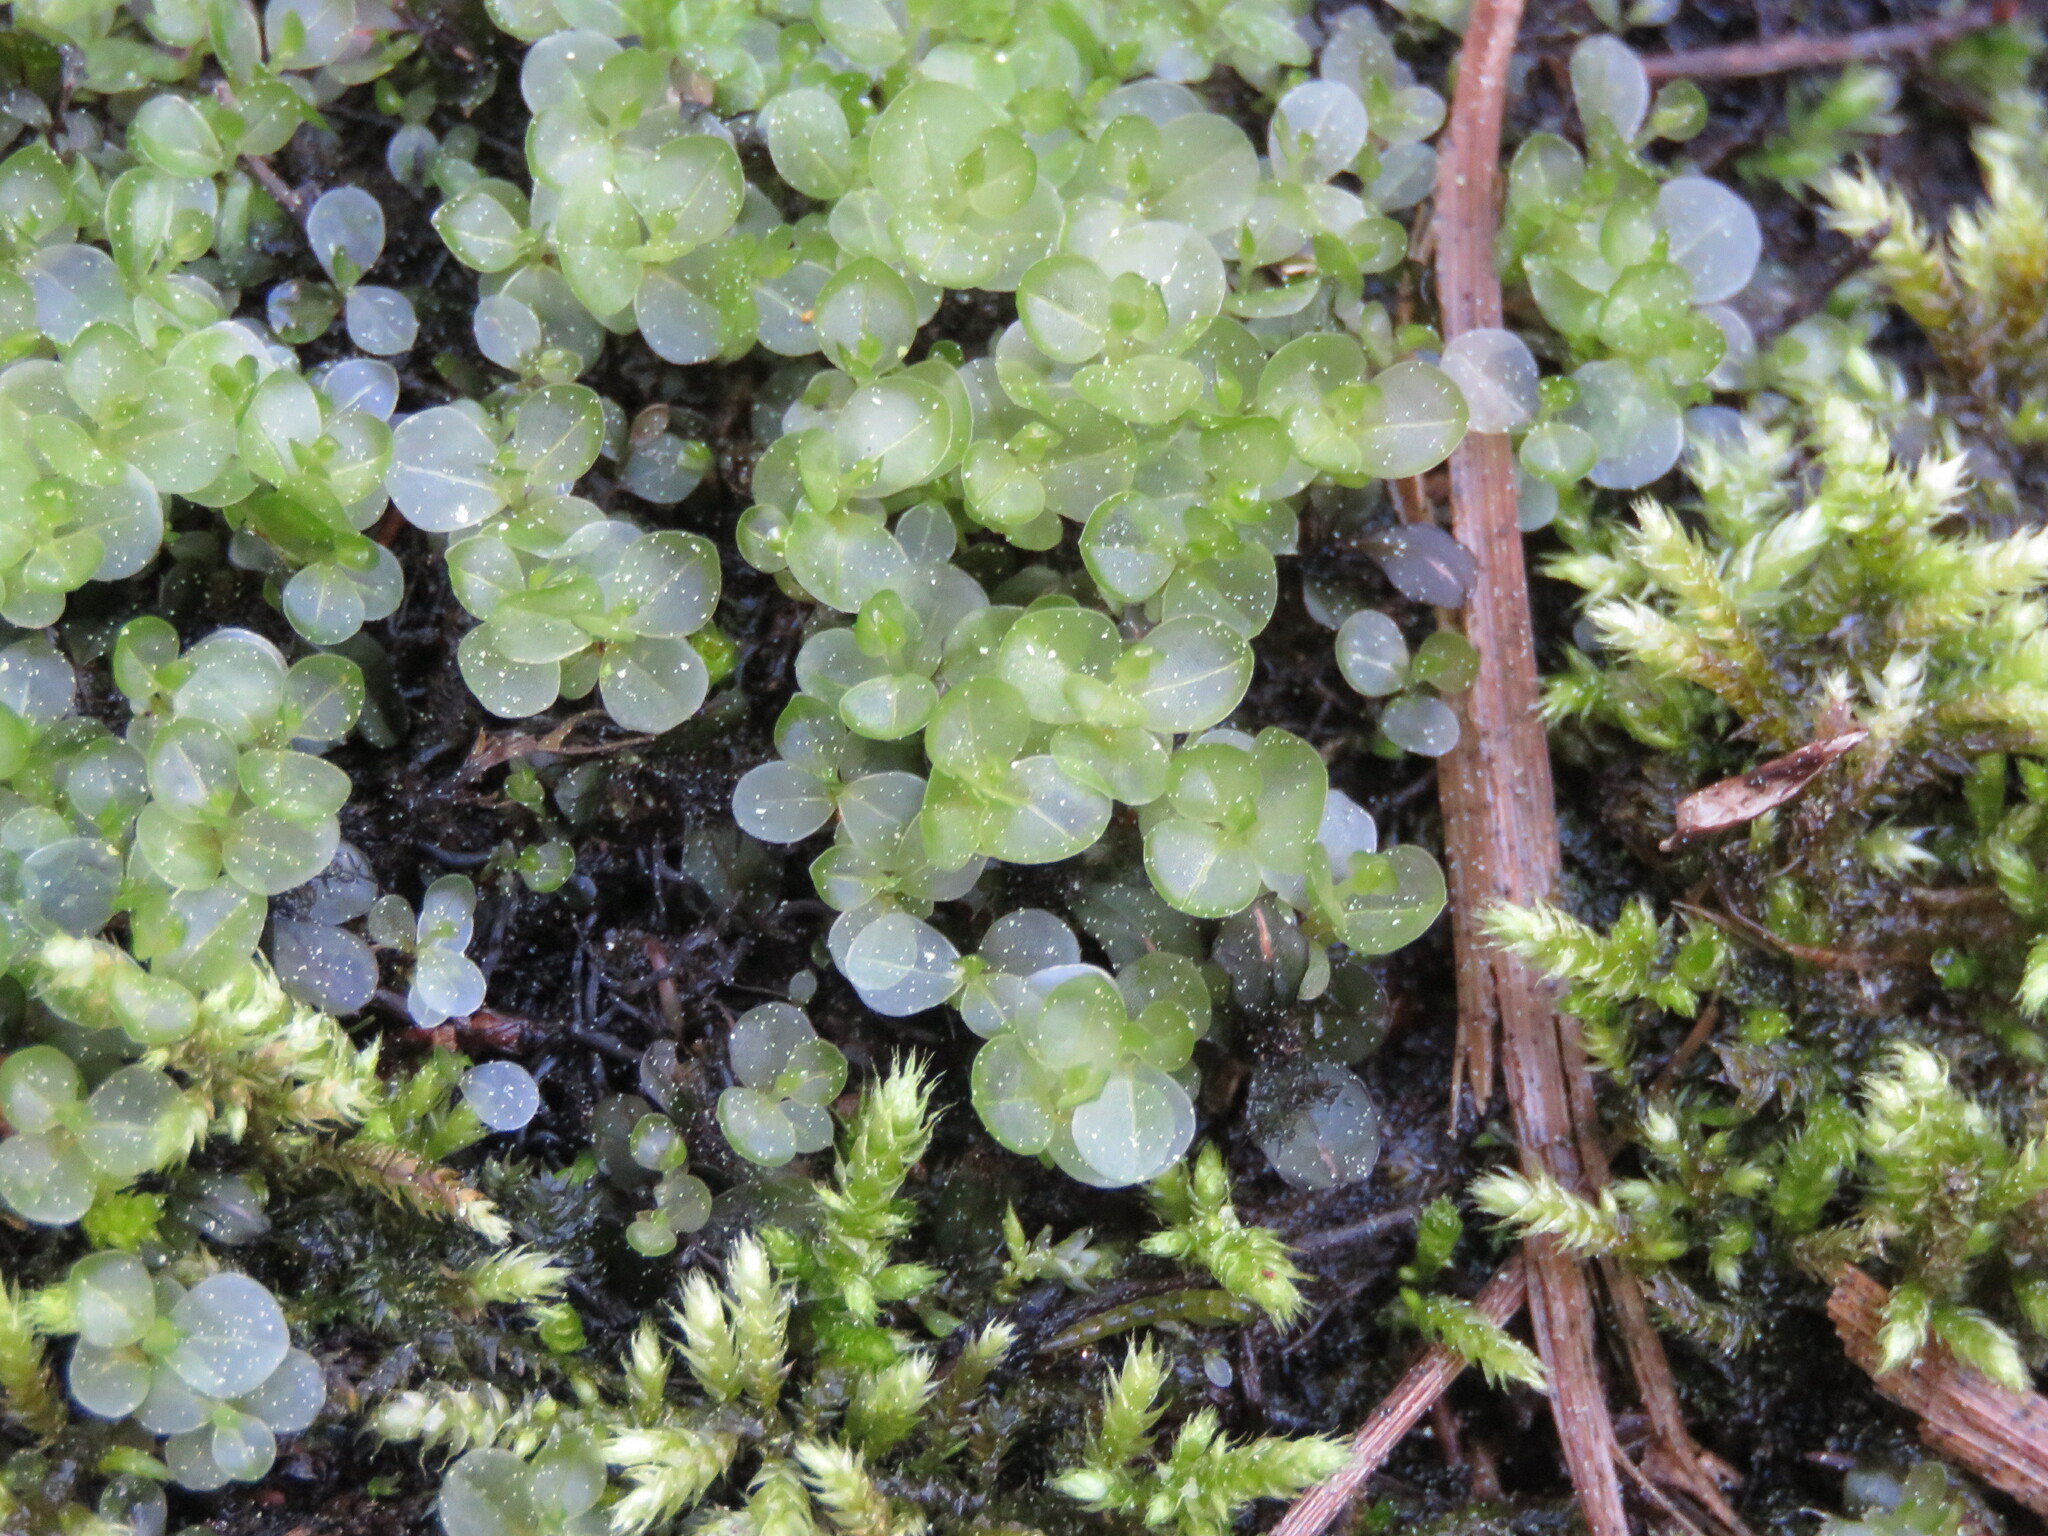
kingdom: Plantae
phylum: Bryophyta
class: Bryopsida
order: Bryales
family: Mniaceae
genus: Rhizomnium
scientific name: Rhizomnium punctatum
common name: Dotted leafy moss
